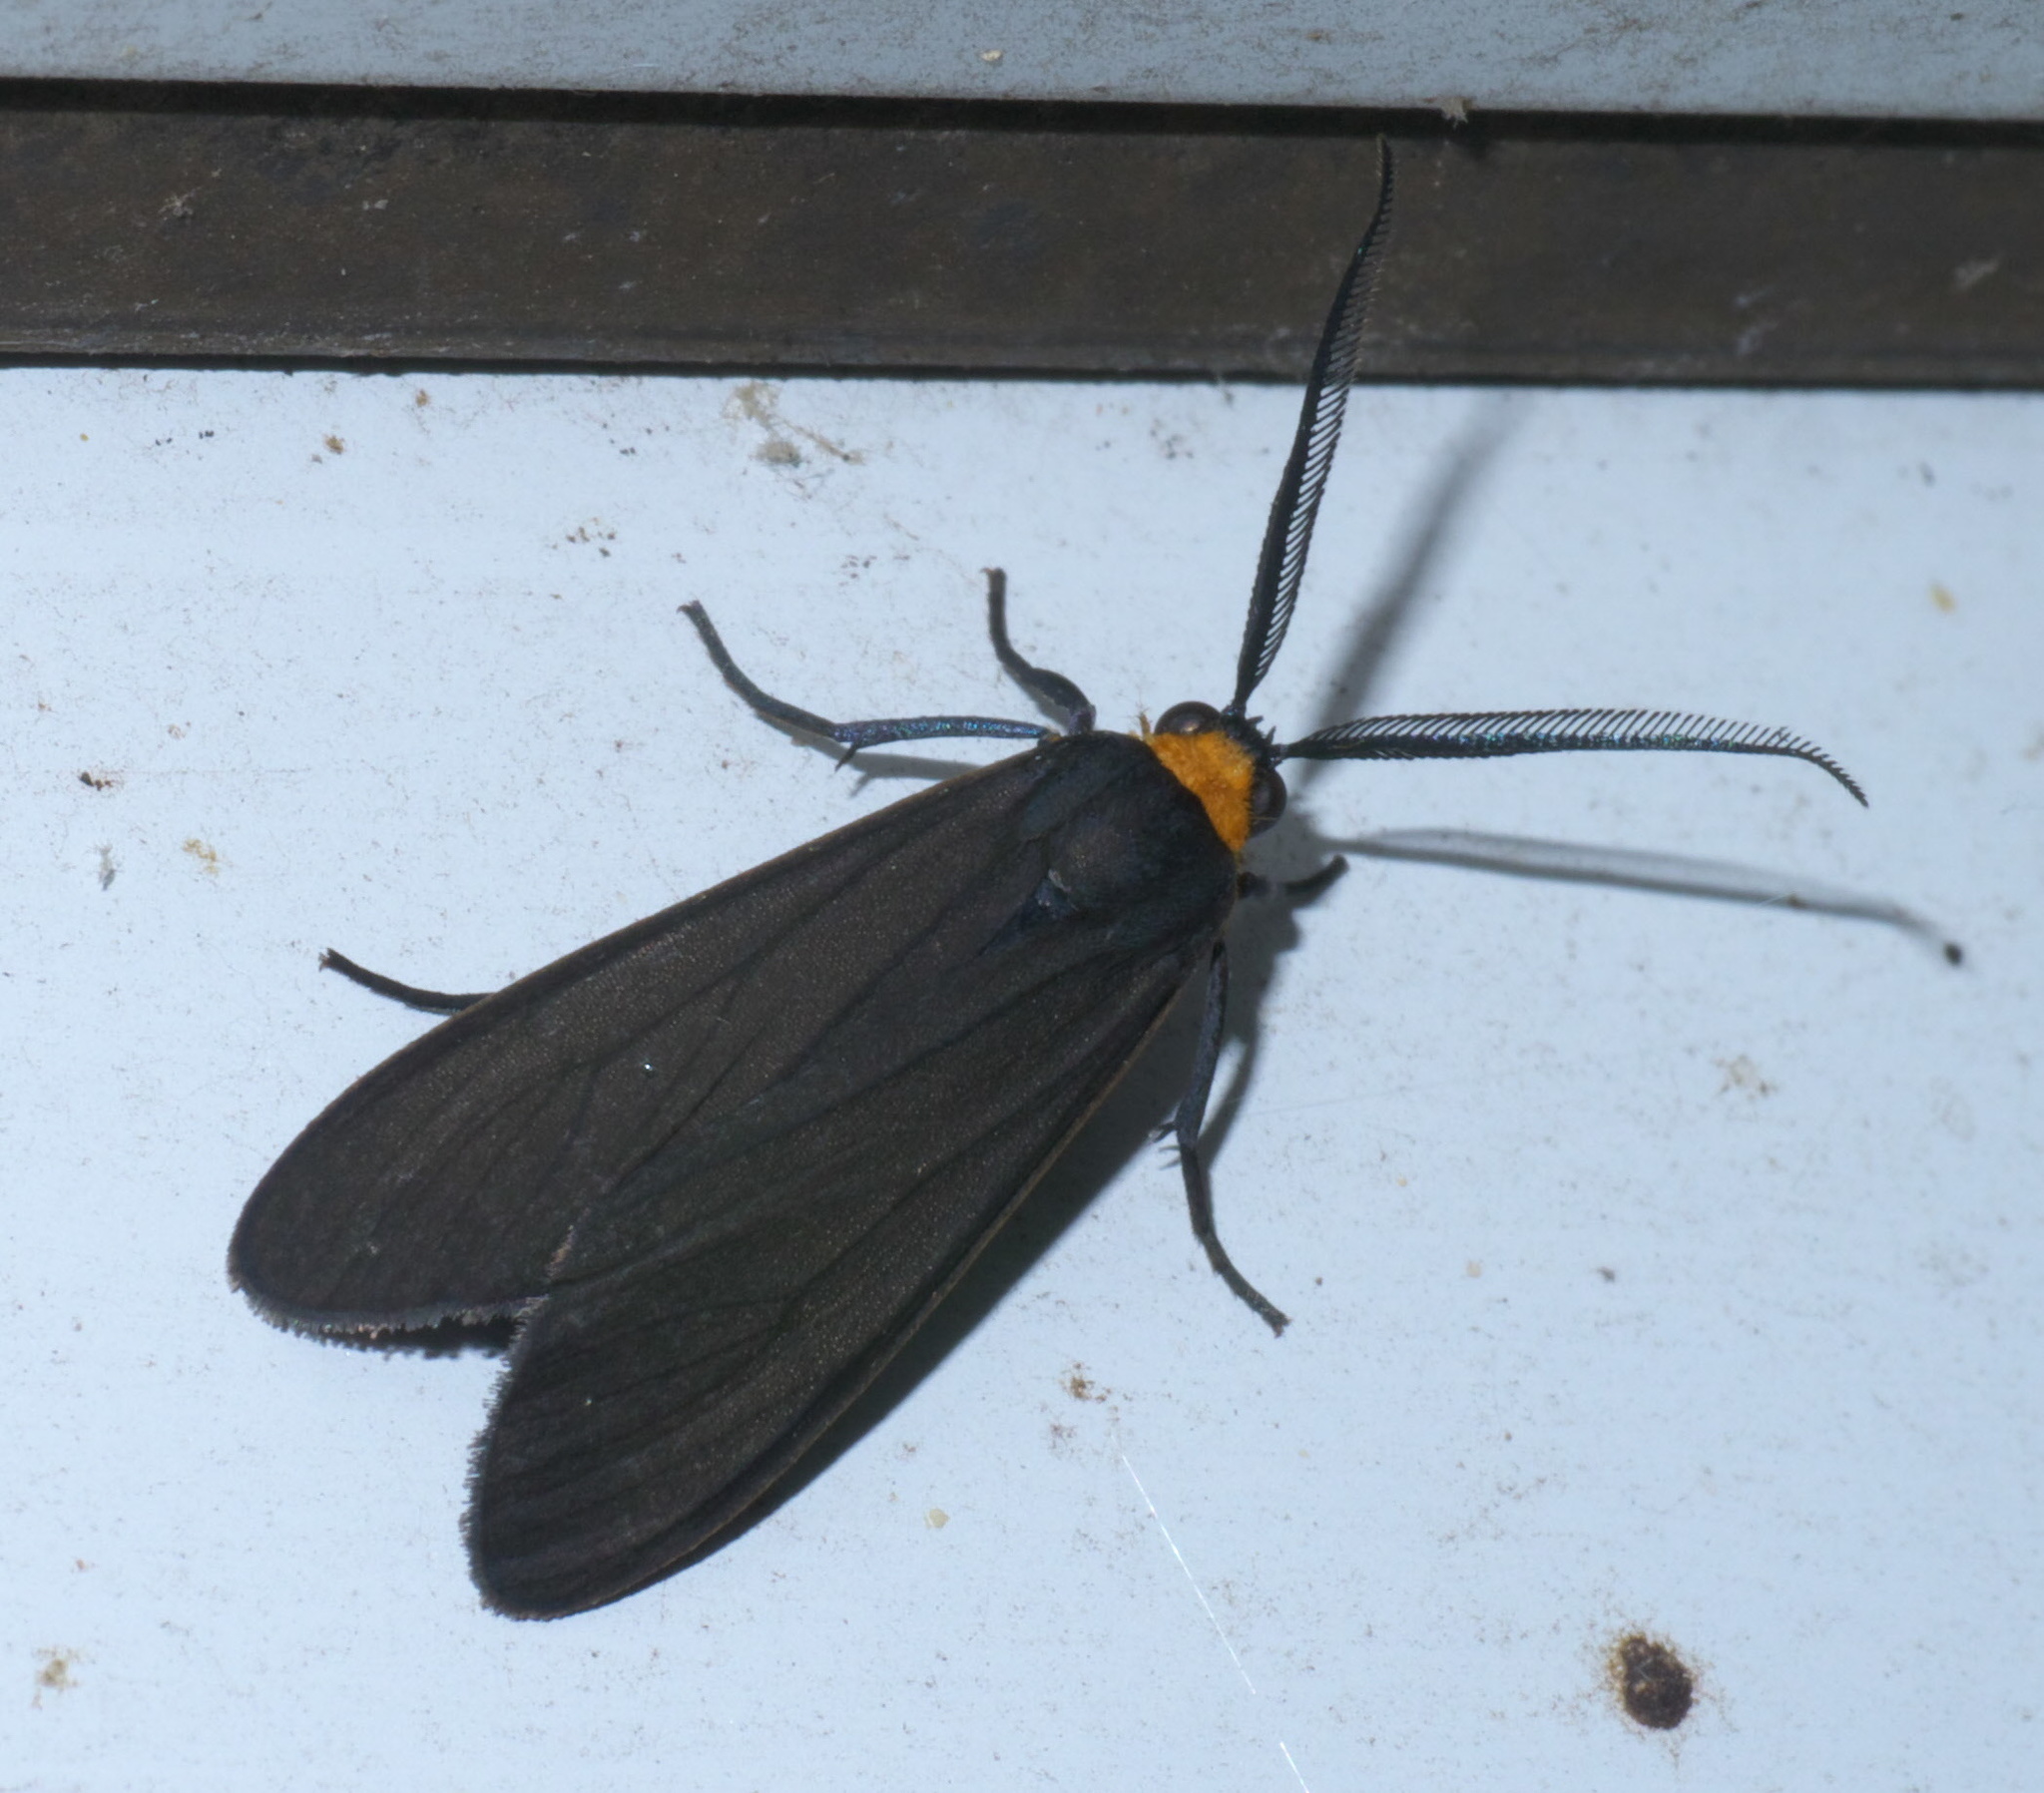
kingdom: Animalia
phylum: Arthropoda
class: Insecta
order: Lepidoptera
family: Erebidae
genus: Cisseps
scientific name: Cisseps fulvicollis
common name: Yellow-collared scape moth
